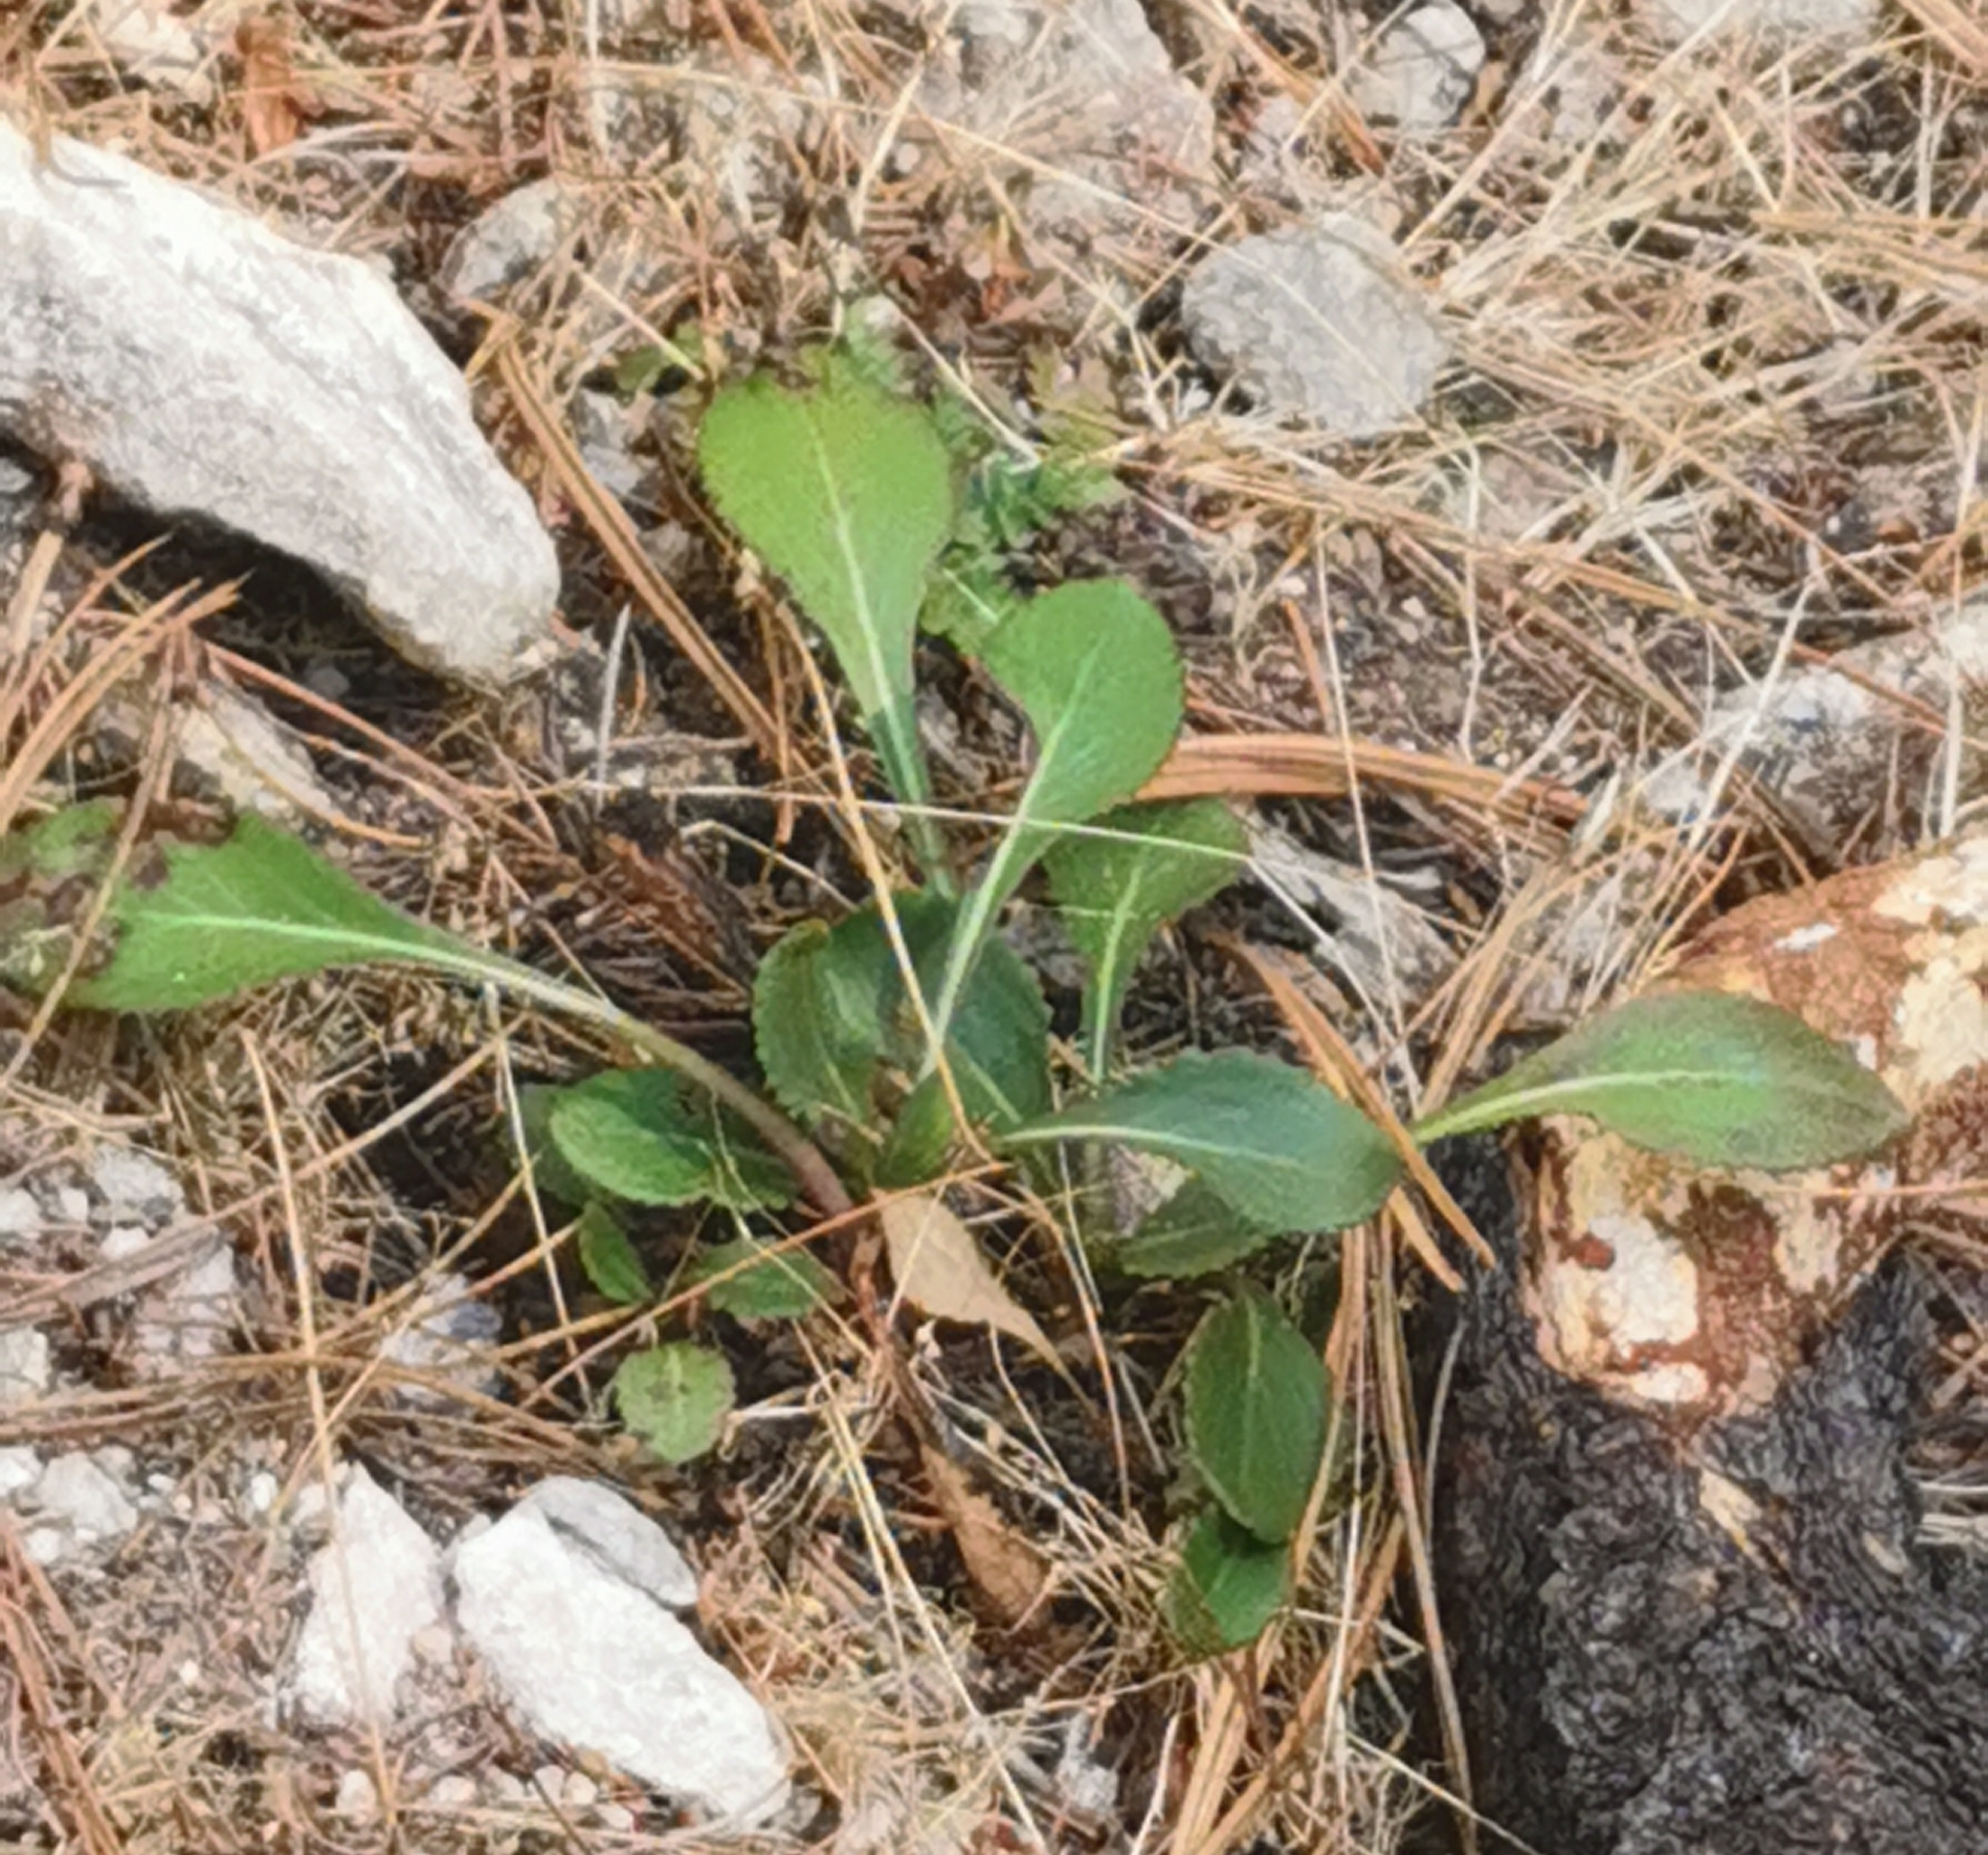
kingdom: Plantae
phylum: Tracheophyta
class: Magnoliopsida
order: Asterales
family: Asteraceae
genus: Packera
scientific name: Packera toluccana
